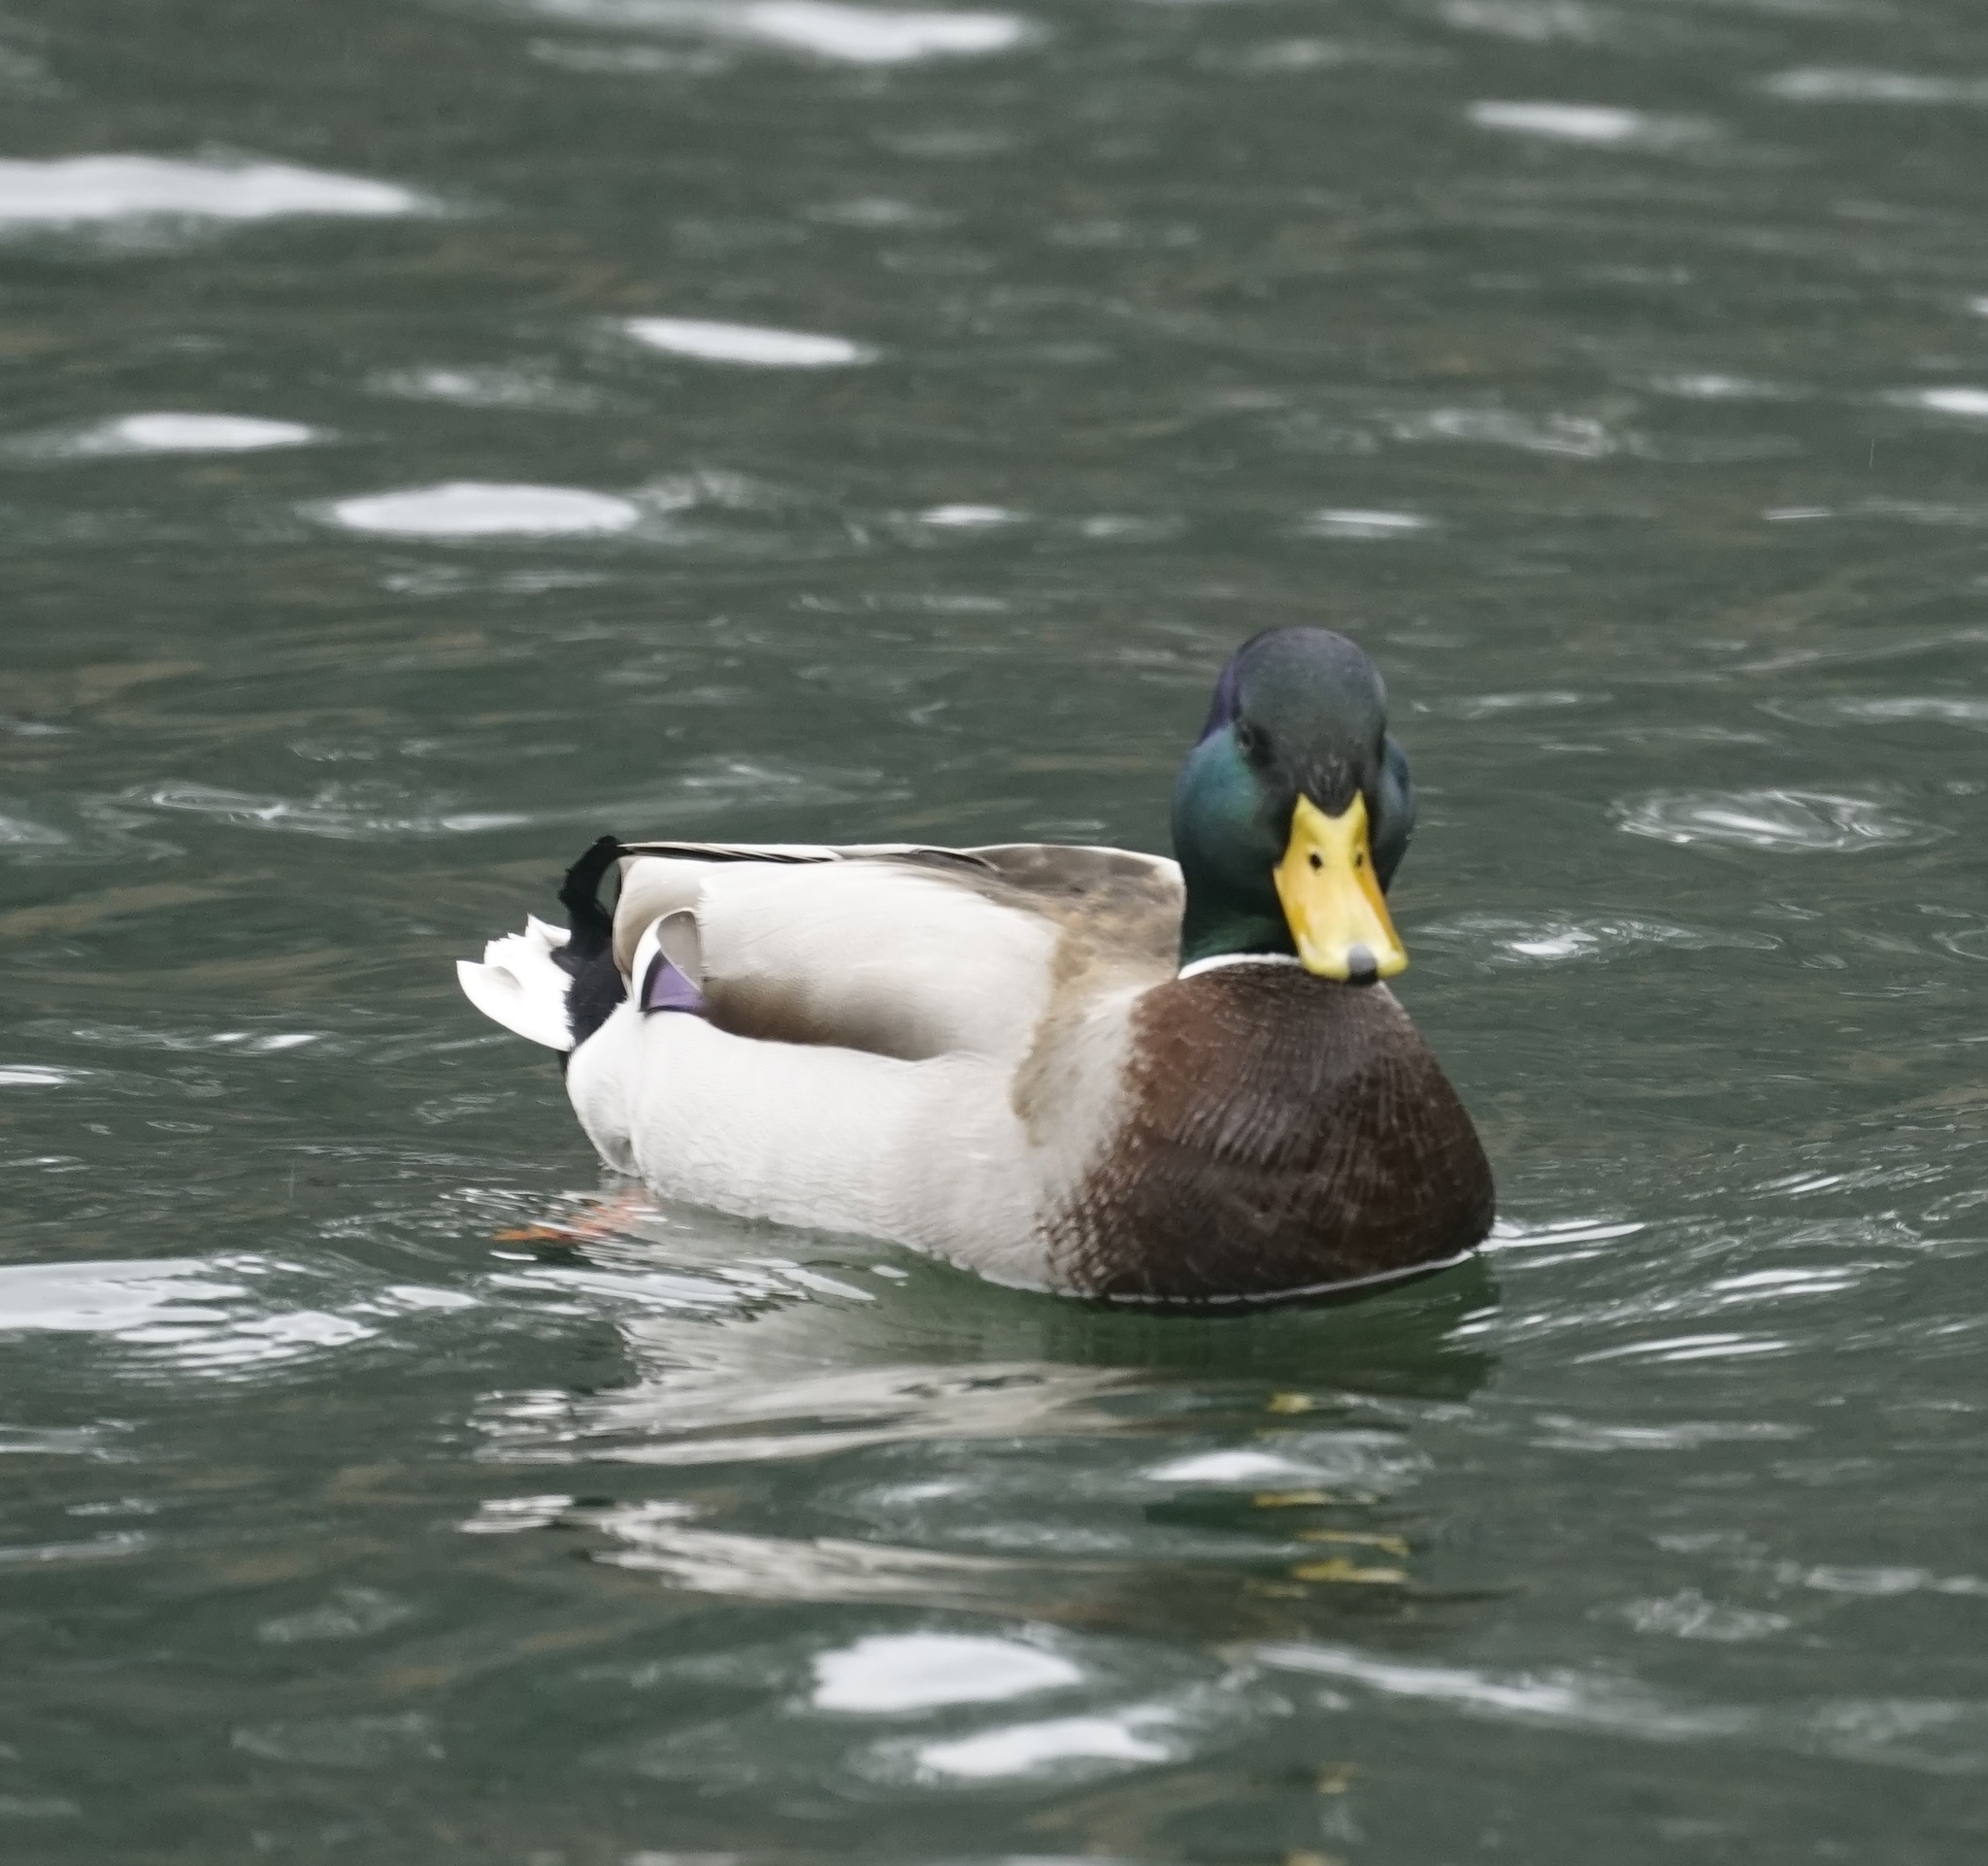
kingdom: Animalia
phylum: Chordata
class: Aves
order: Anseriformes
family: Anatidae
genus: Anas
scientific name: Anas platyrhynchos
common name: Mallard
